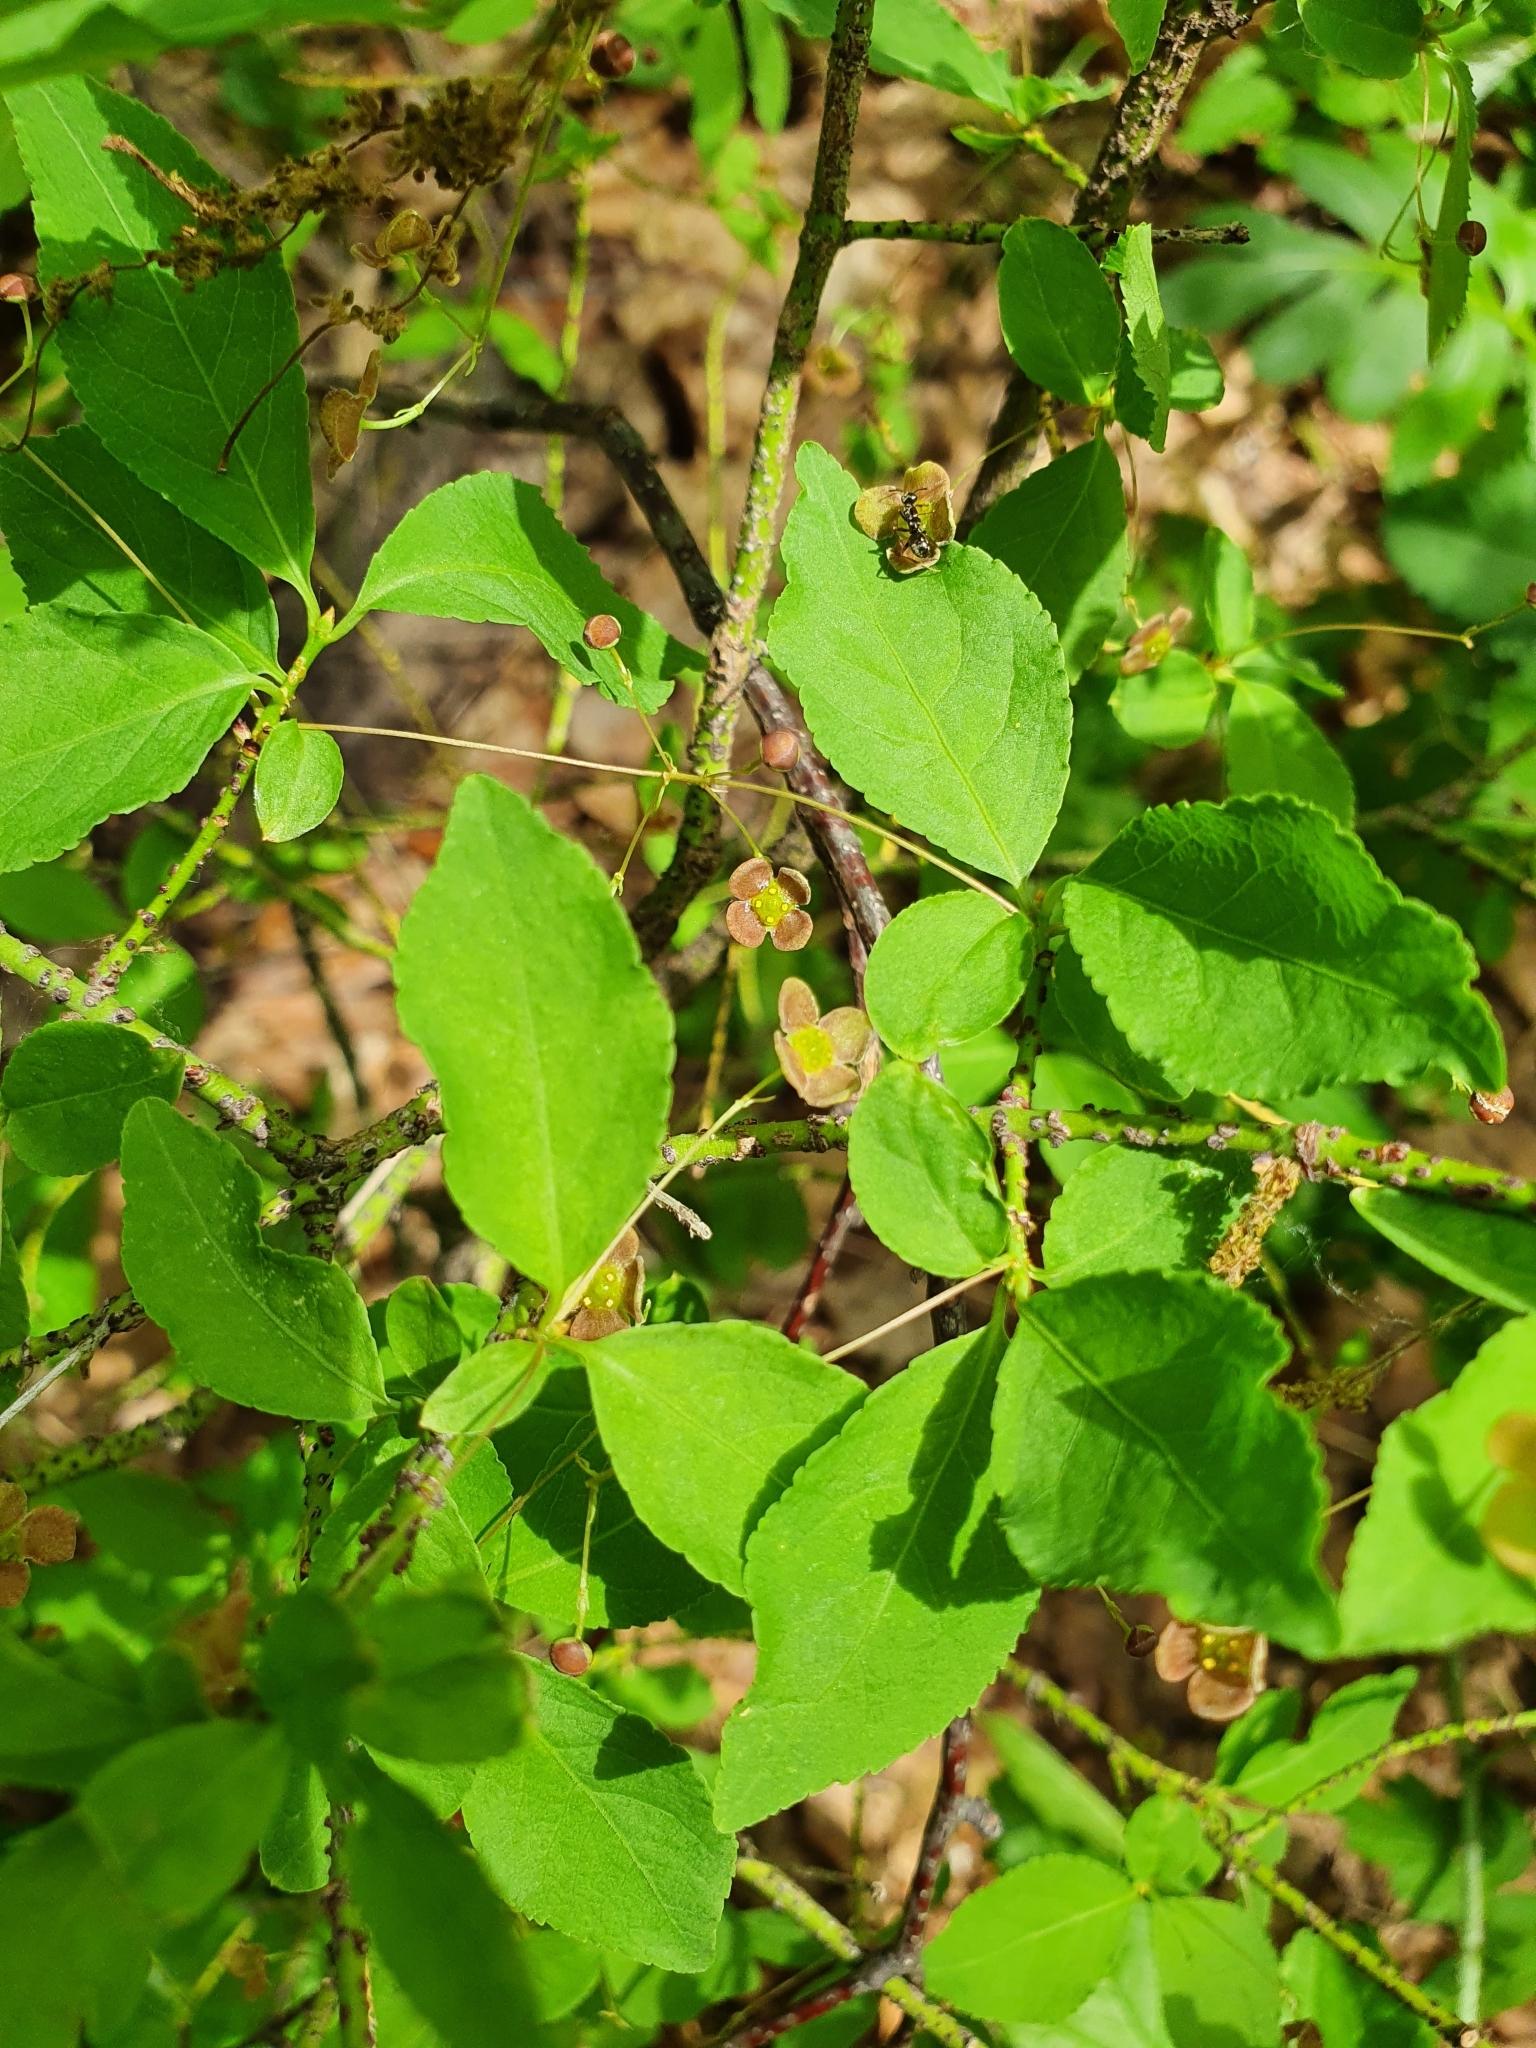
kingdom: Plantae
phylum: Tracheophyta
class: Magnoliopsida
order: Celastrales
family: Celastraceae
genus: Euonymus
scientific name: Euonymus verrucosus
